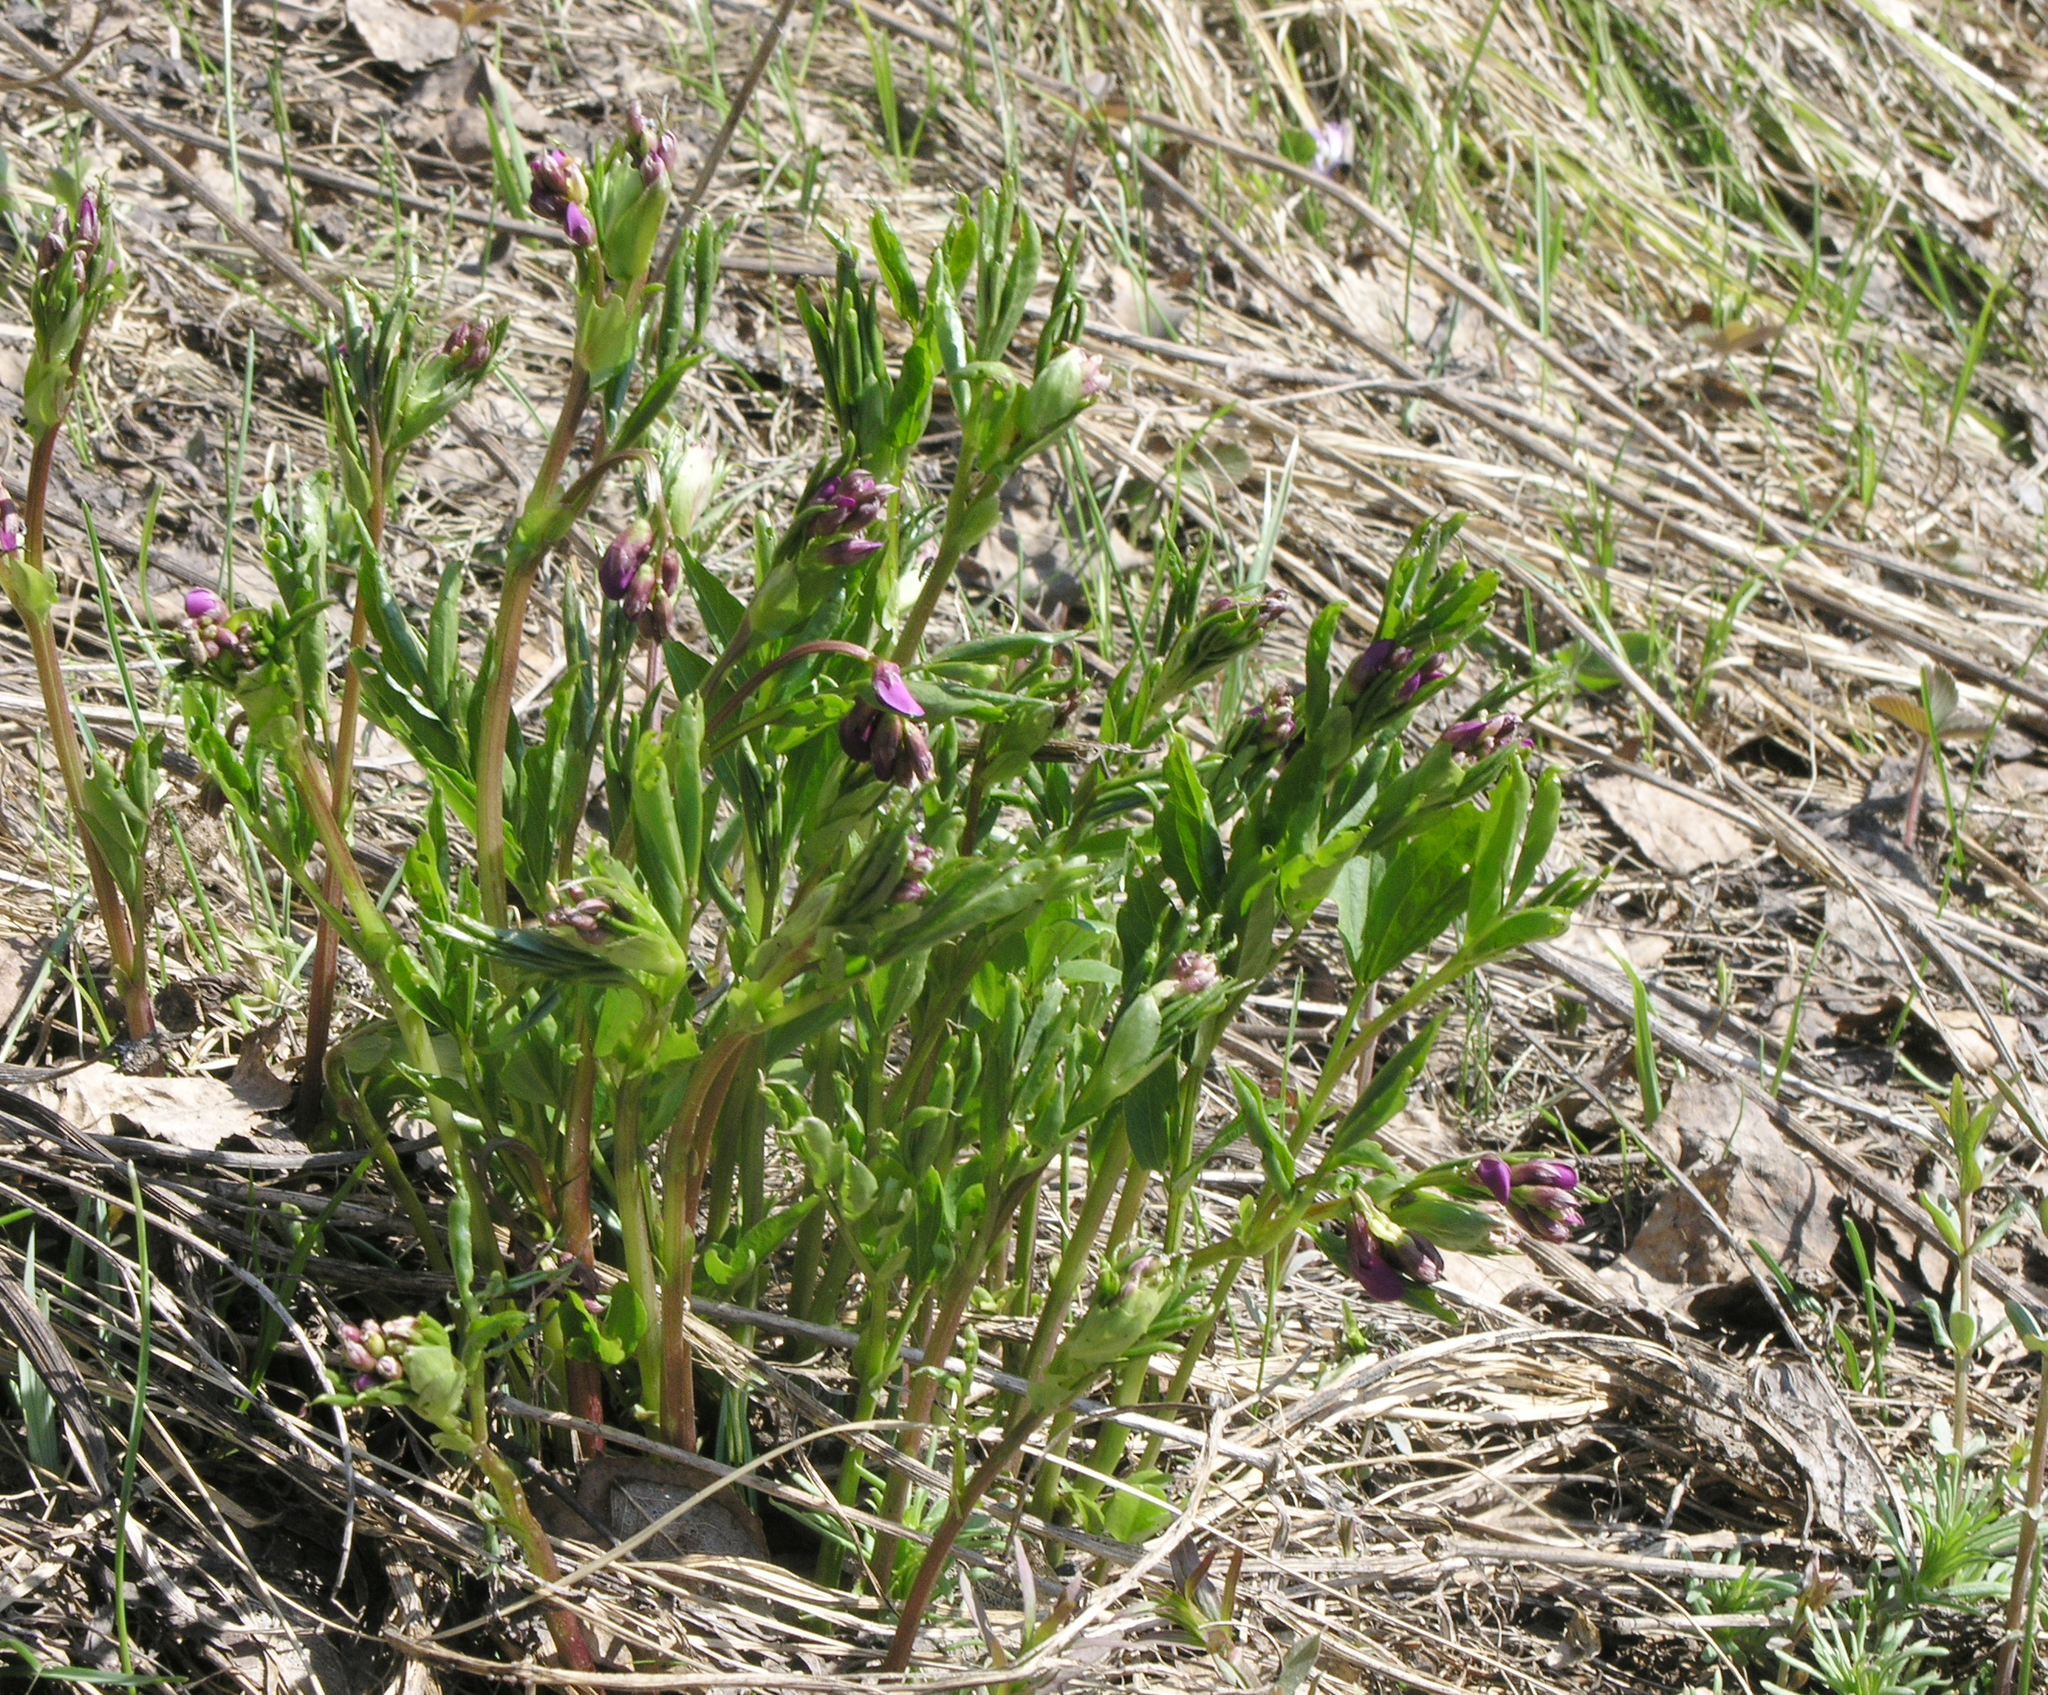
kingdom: Plantae
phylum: Tracheophyta
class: Magnoliopsida
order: Fabales
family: Fabaceae
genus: Lathyrus
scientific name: Lathyrus vernus
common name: Spring pea
